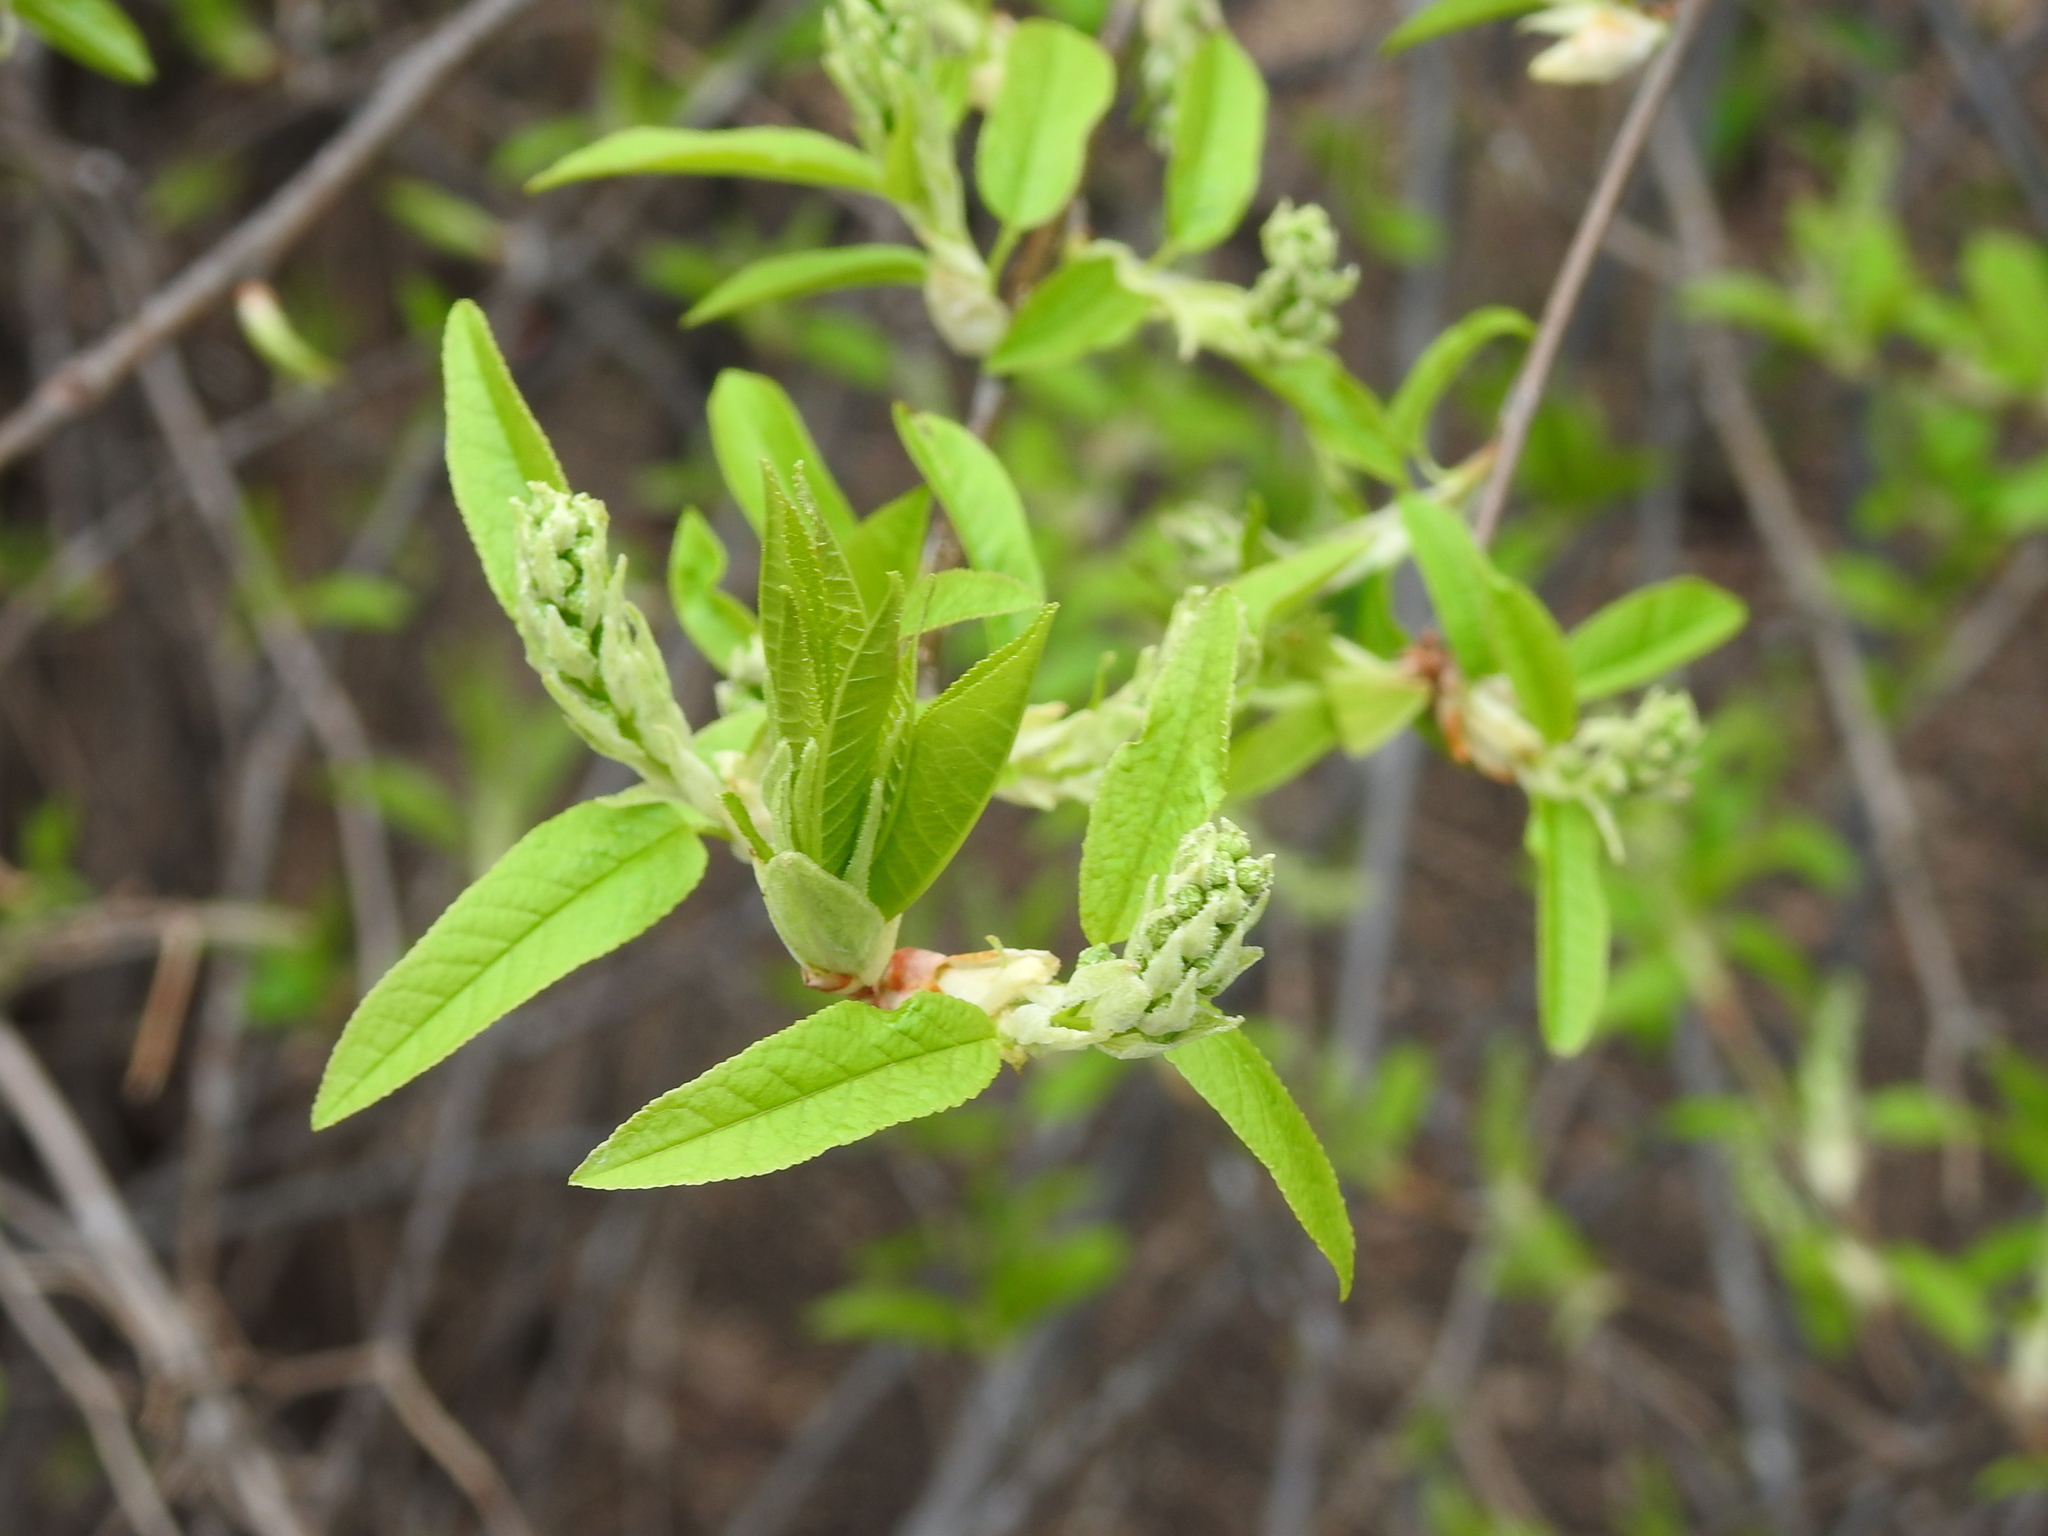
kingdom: Plantae
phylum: Tracheophyta
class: Magnoliopsida
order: Rosales
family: Rosaceae
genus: Prunus
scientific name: Prunus padus
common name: Bird cherry
